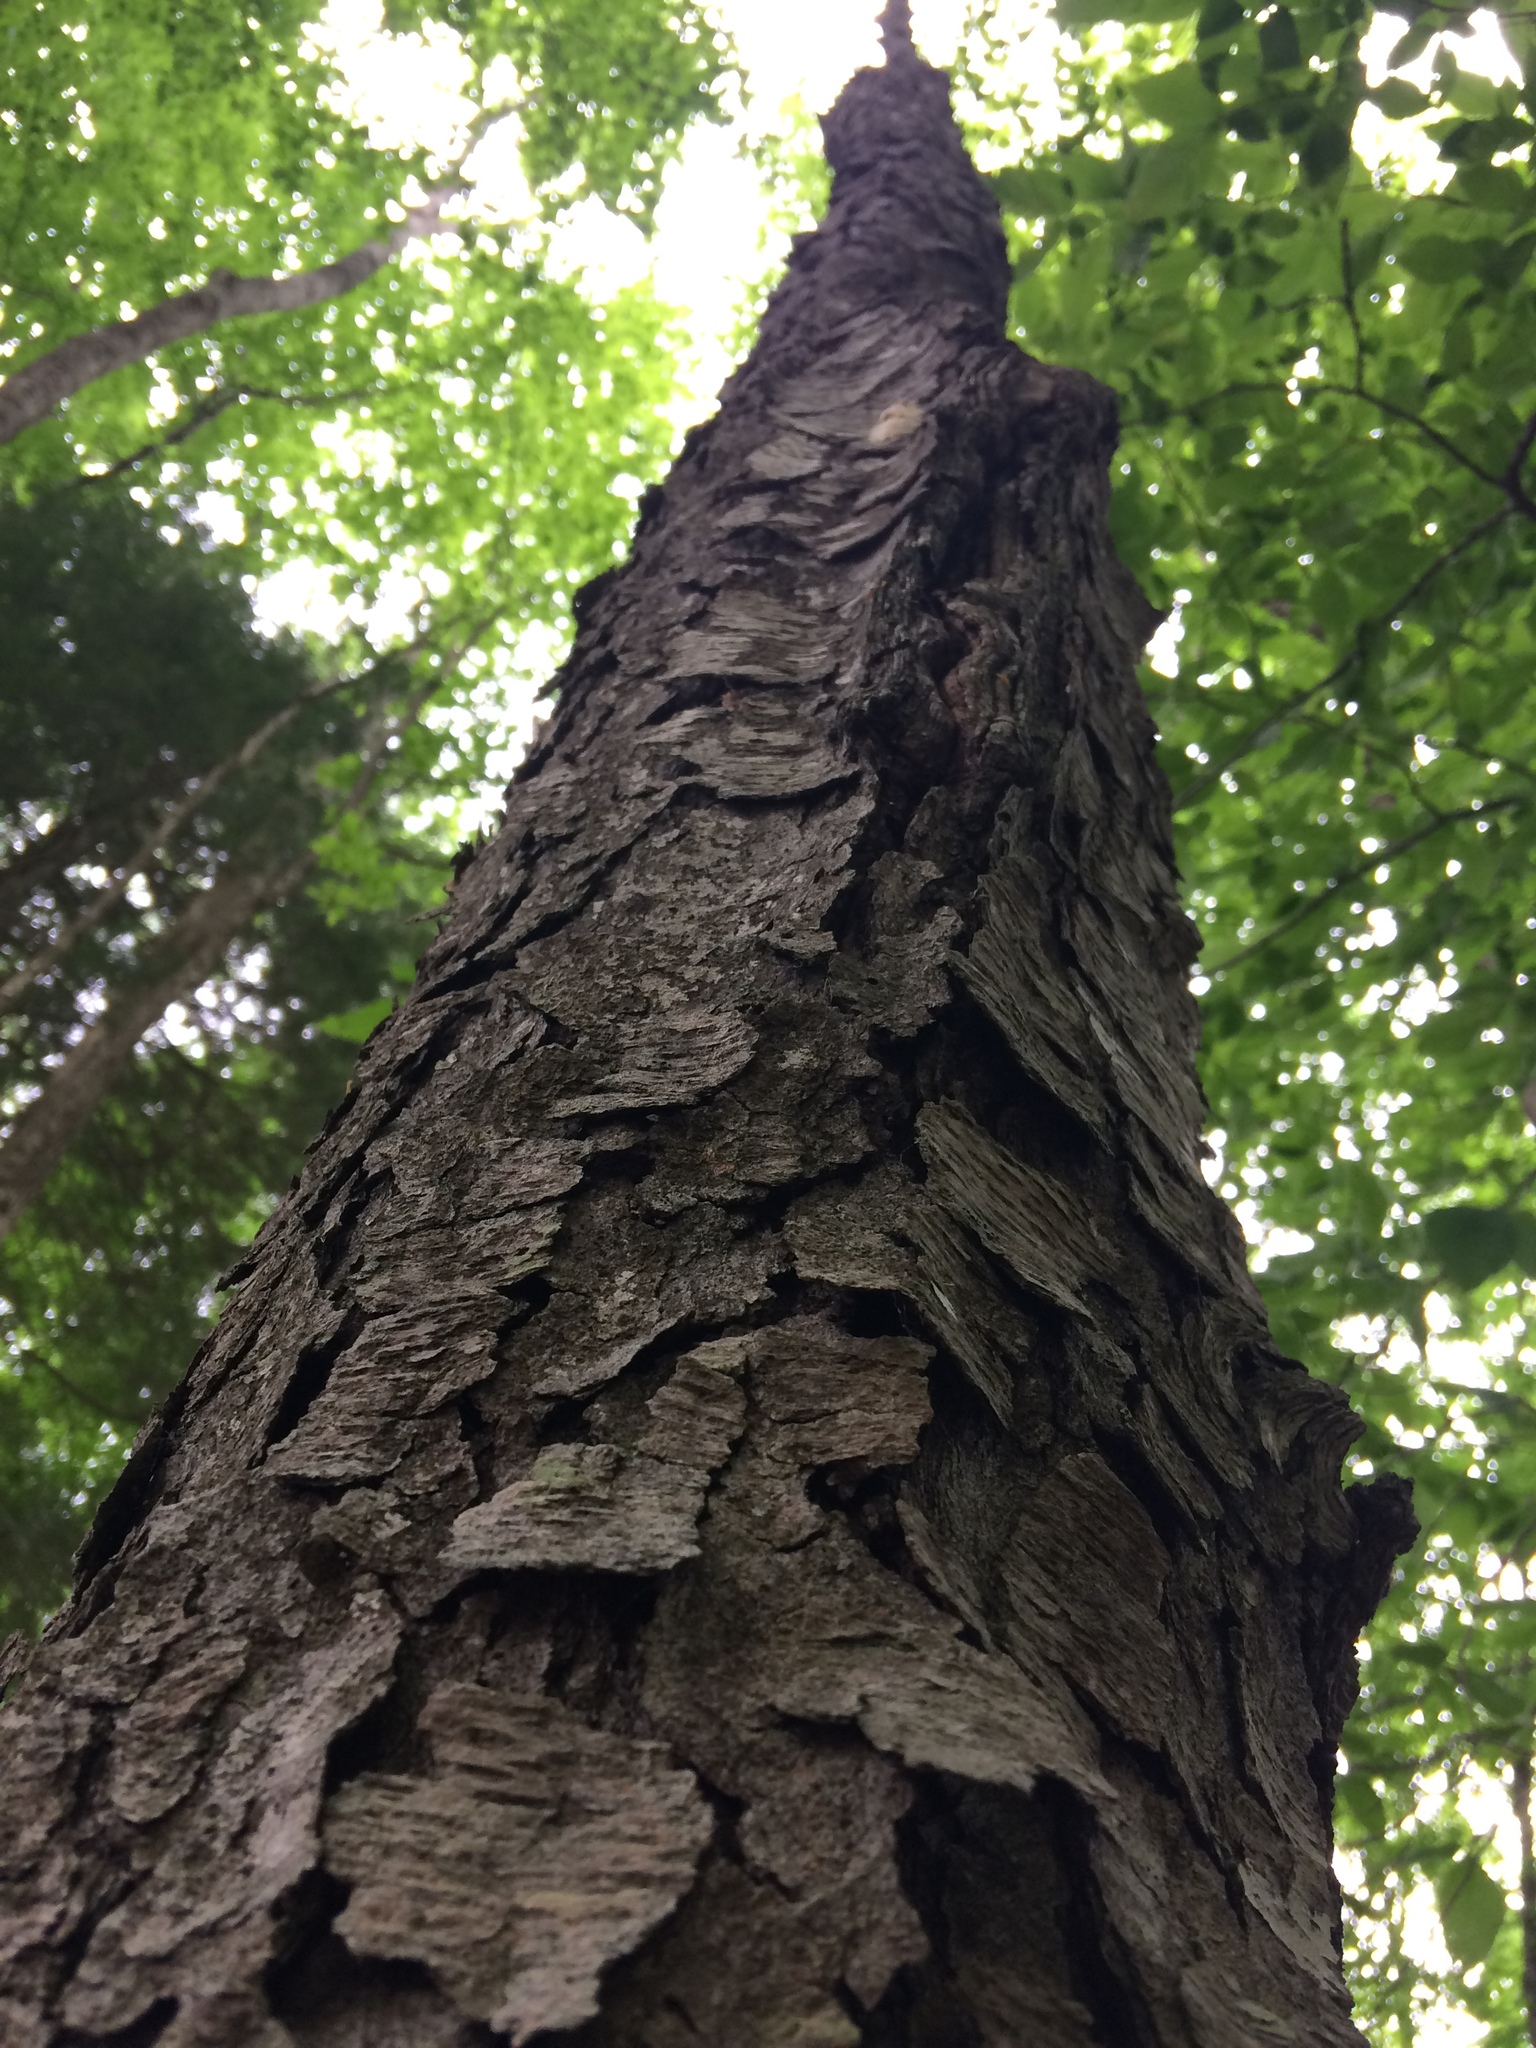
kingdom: Plantae
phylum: Tracheophyta
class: Magnoliopsida
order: Rosales
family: Rosaceae
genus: Prunus
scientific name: Prunus serotina
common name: Black cherry
